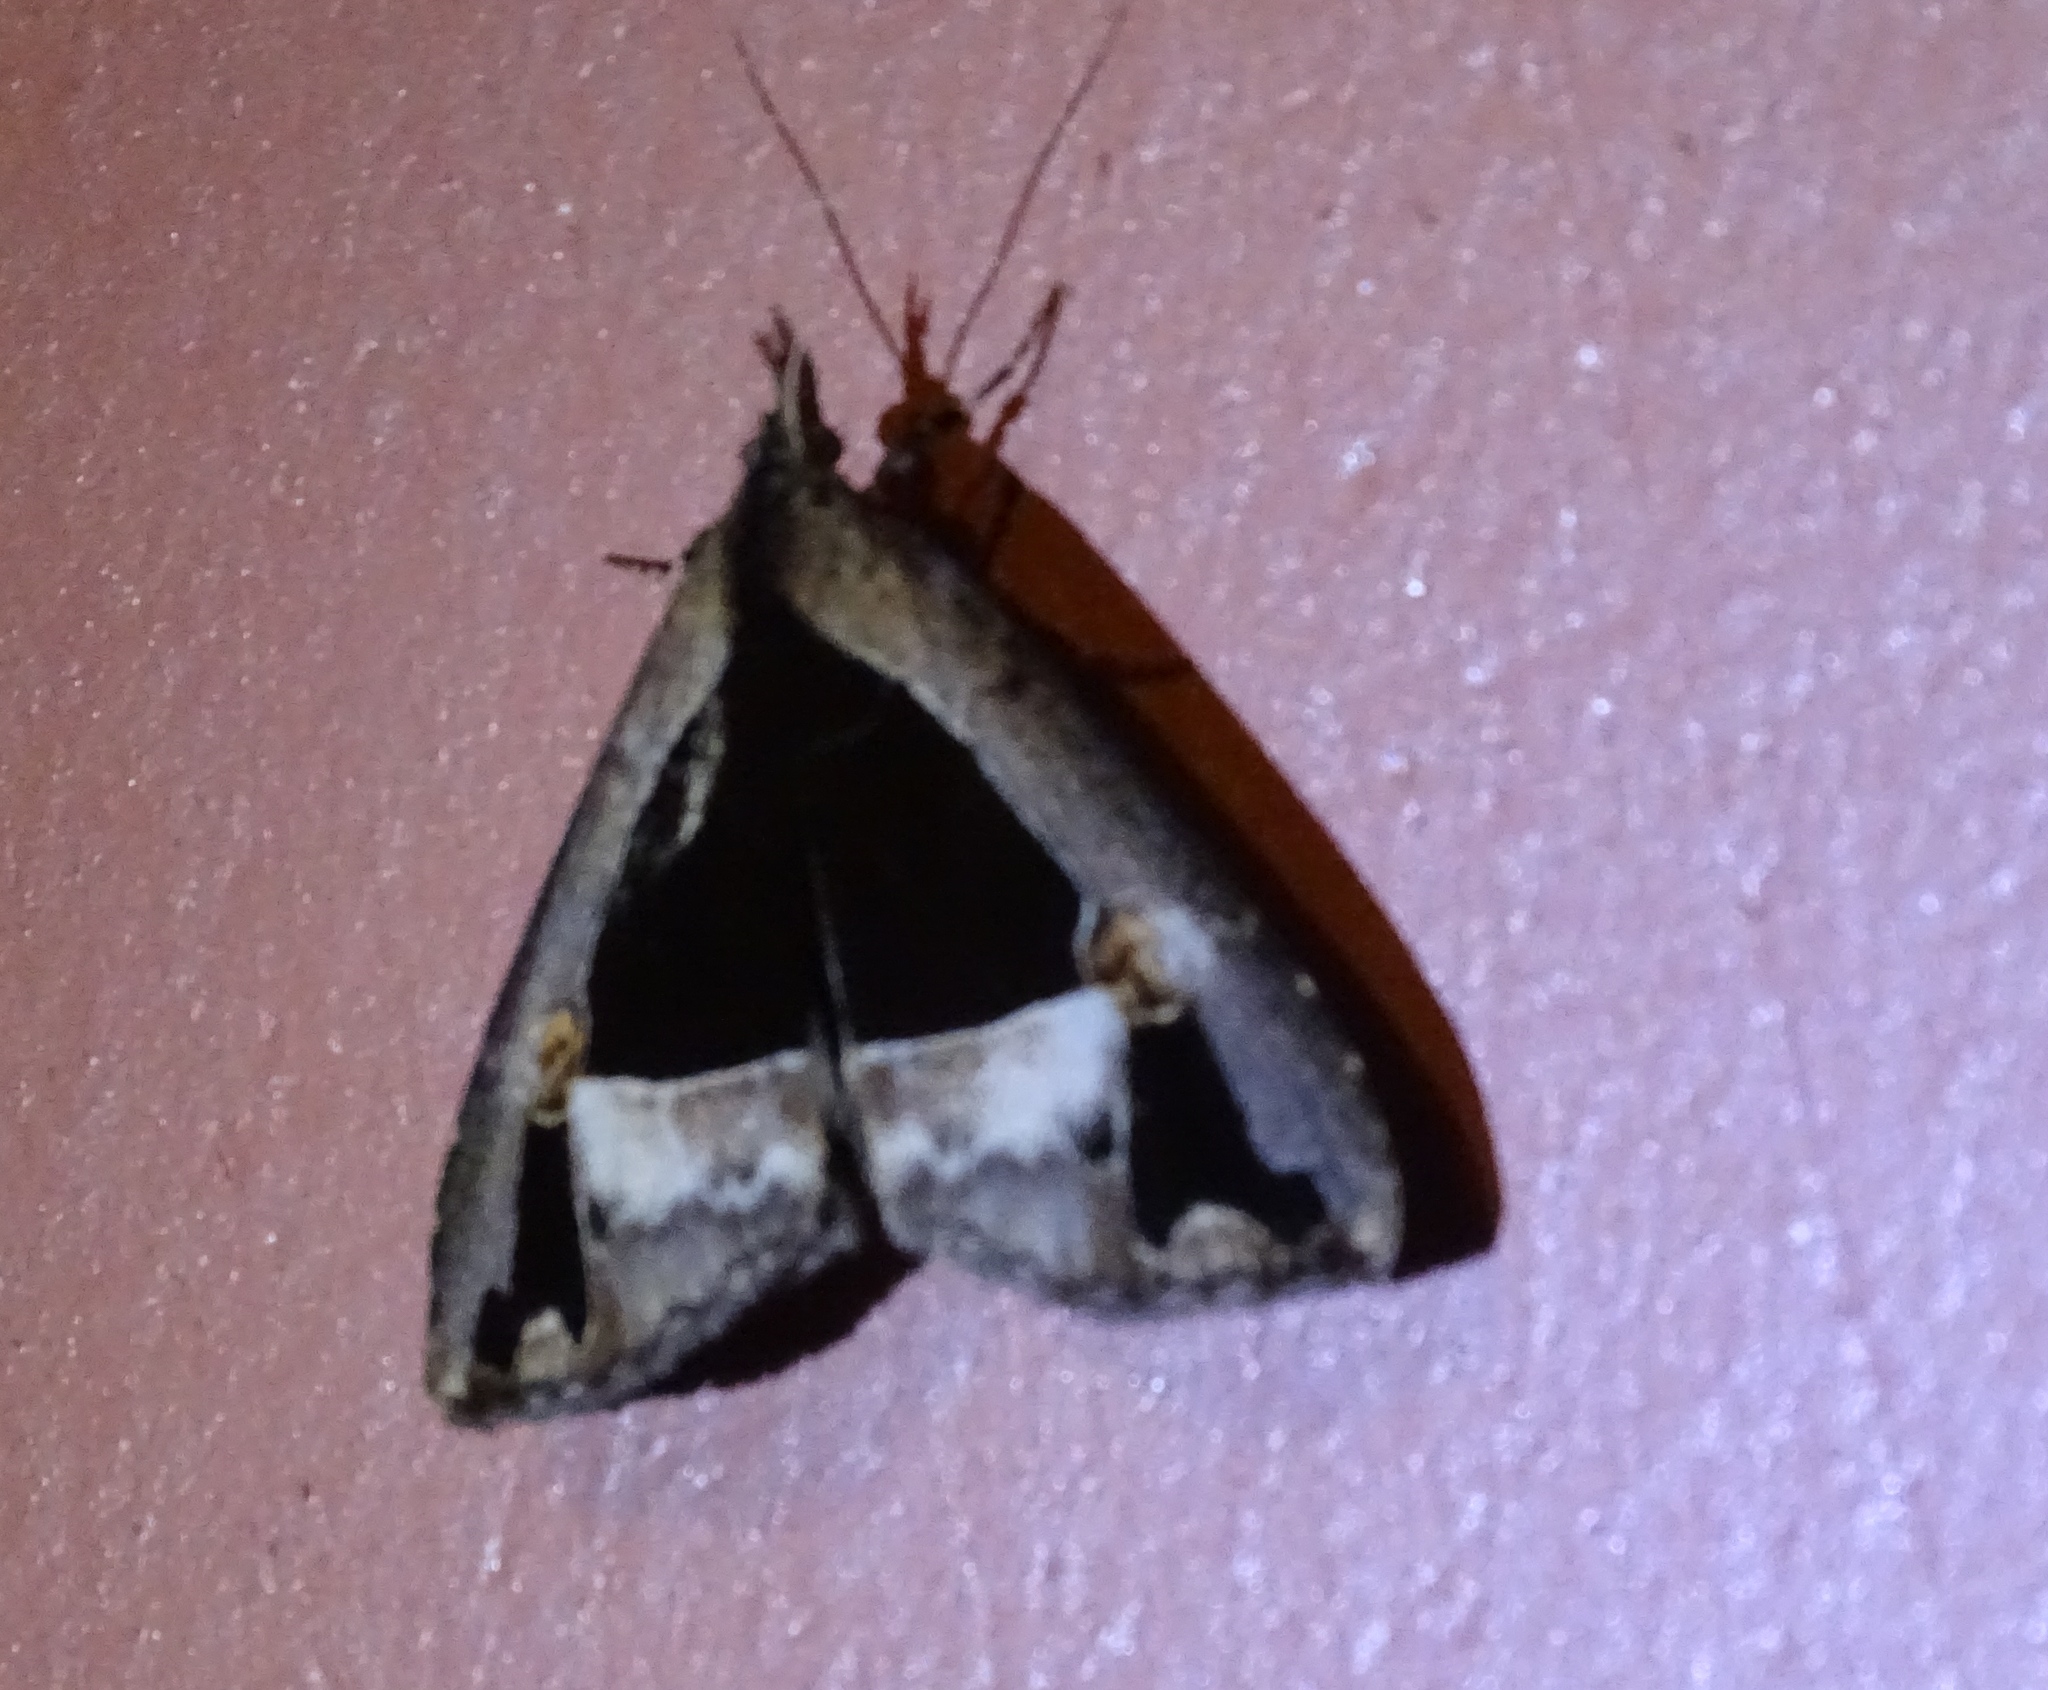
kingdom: Animalia
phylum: Arthropoda
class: Insecta
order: Lepidoptera
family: Erebidae
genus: Eudocima
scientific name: Eudocima divitiosa
